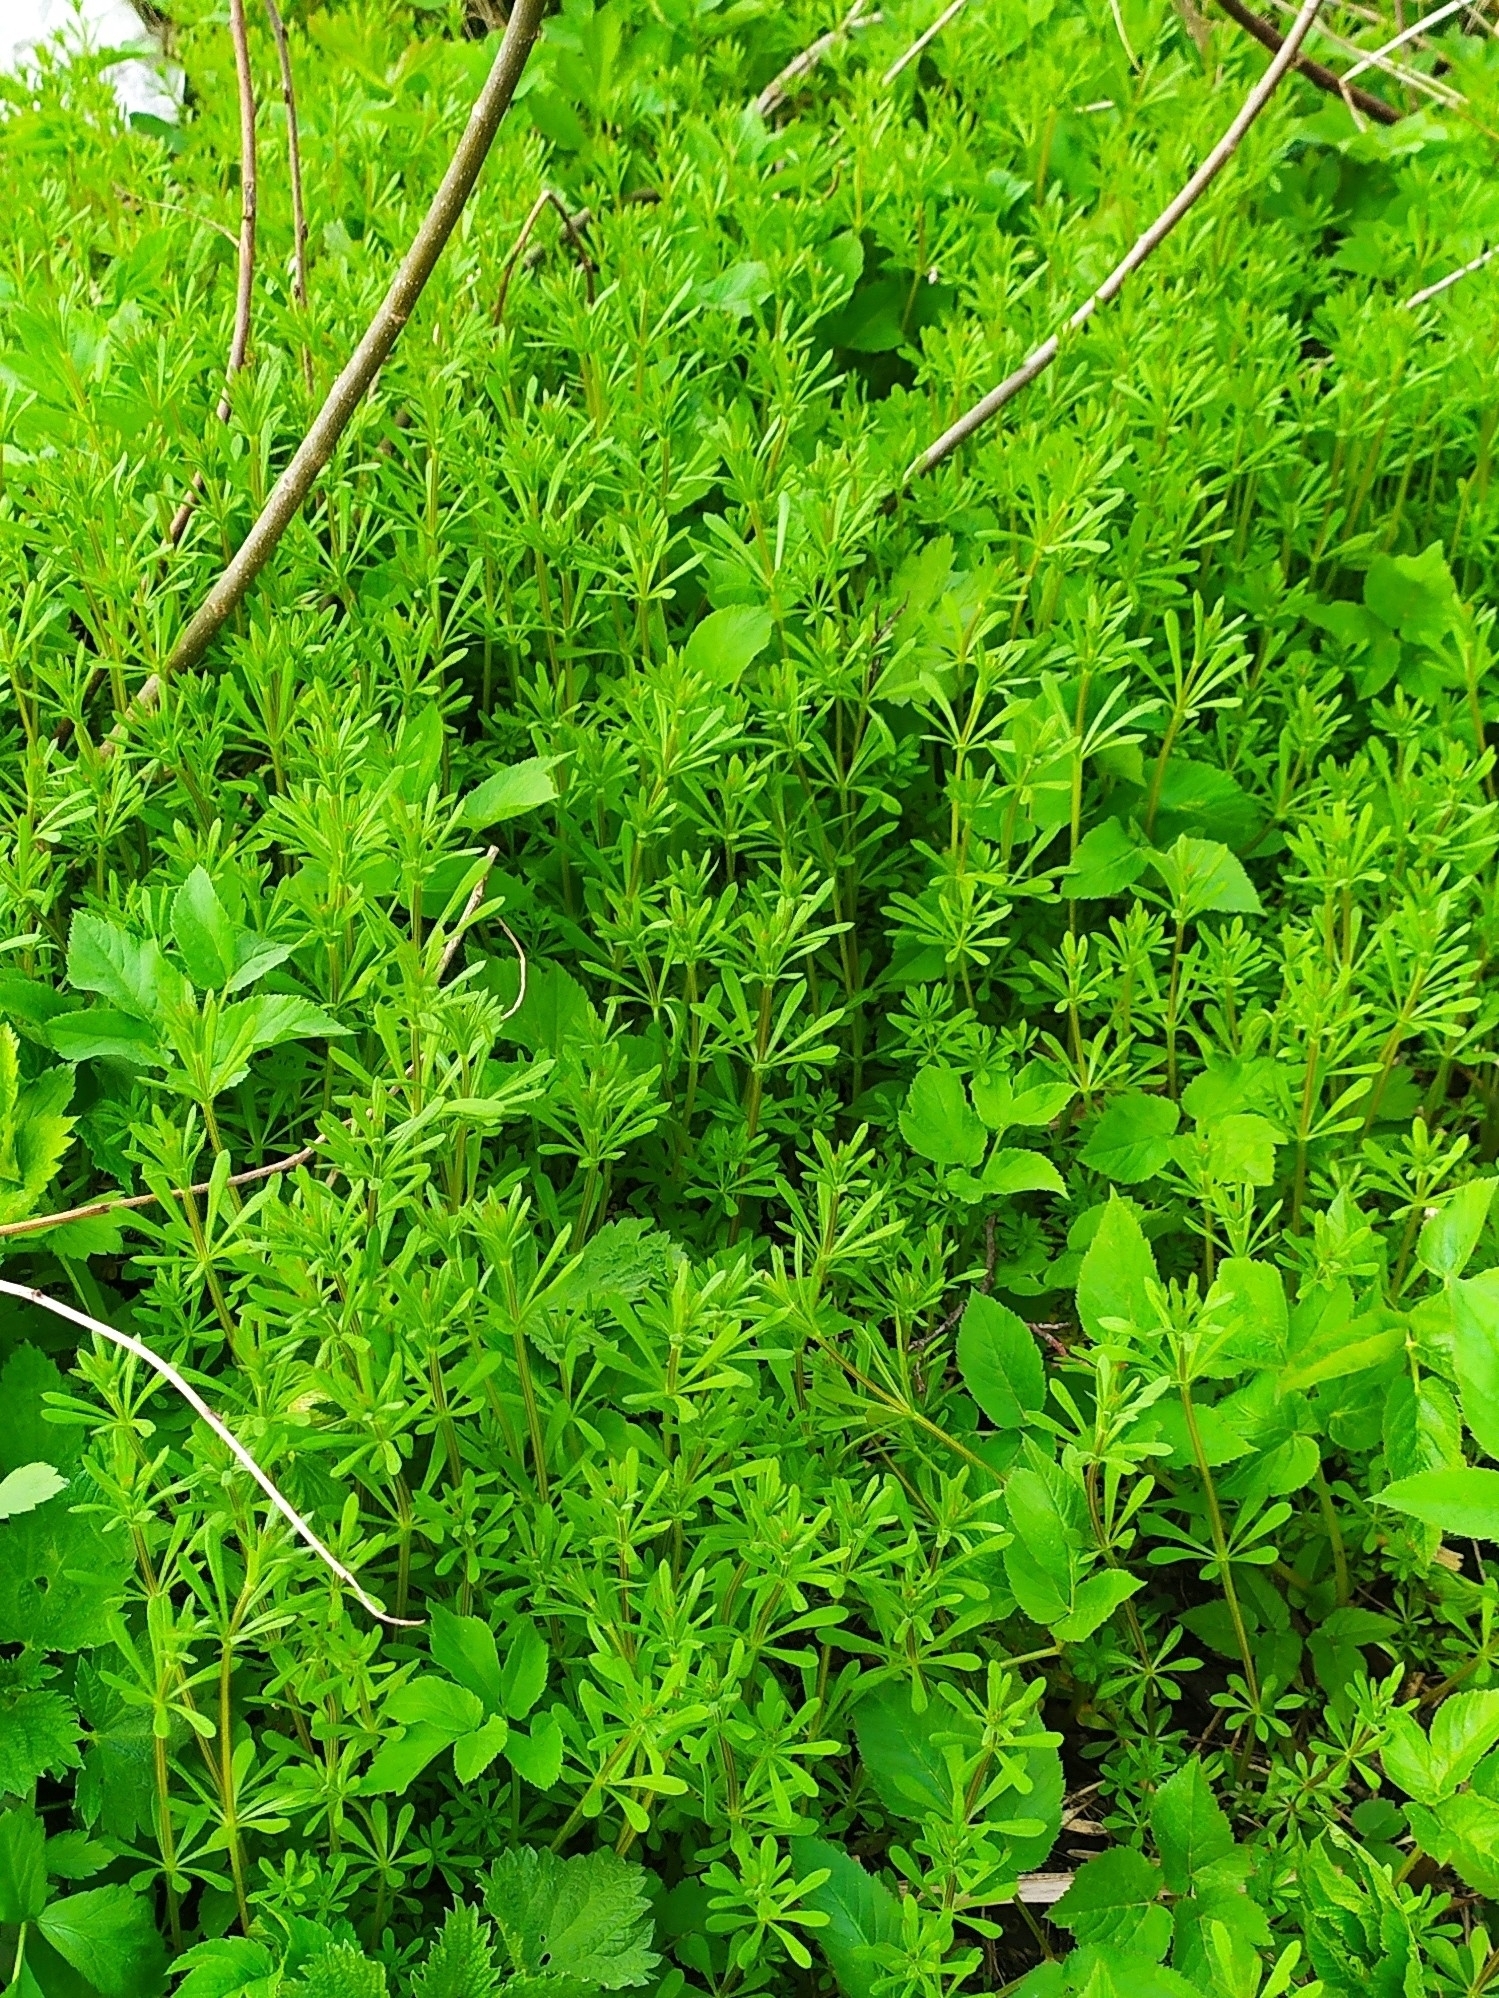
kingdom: Plantae
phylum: Tracheophyta
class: Magnoliopsida
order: Gentianales
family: Rubiaceae
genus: Galium
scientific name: Galium aparine
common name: Cleavers
